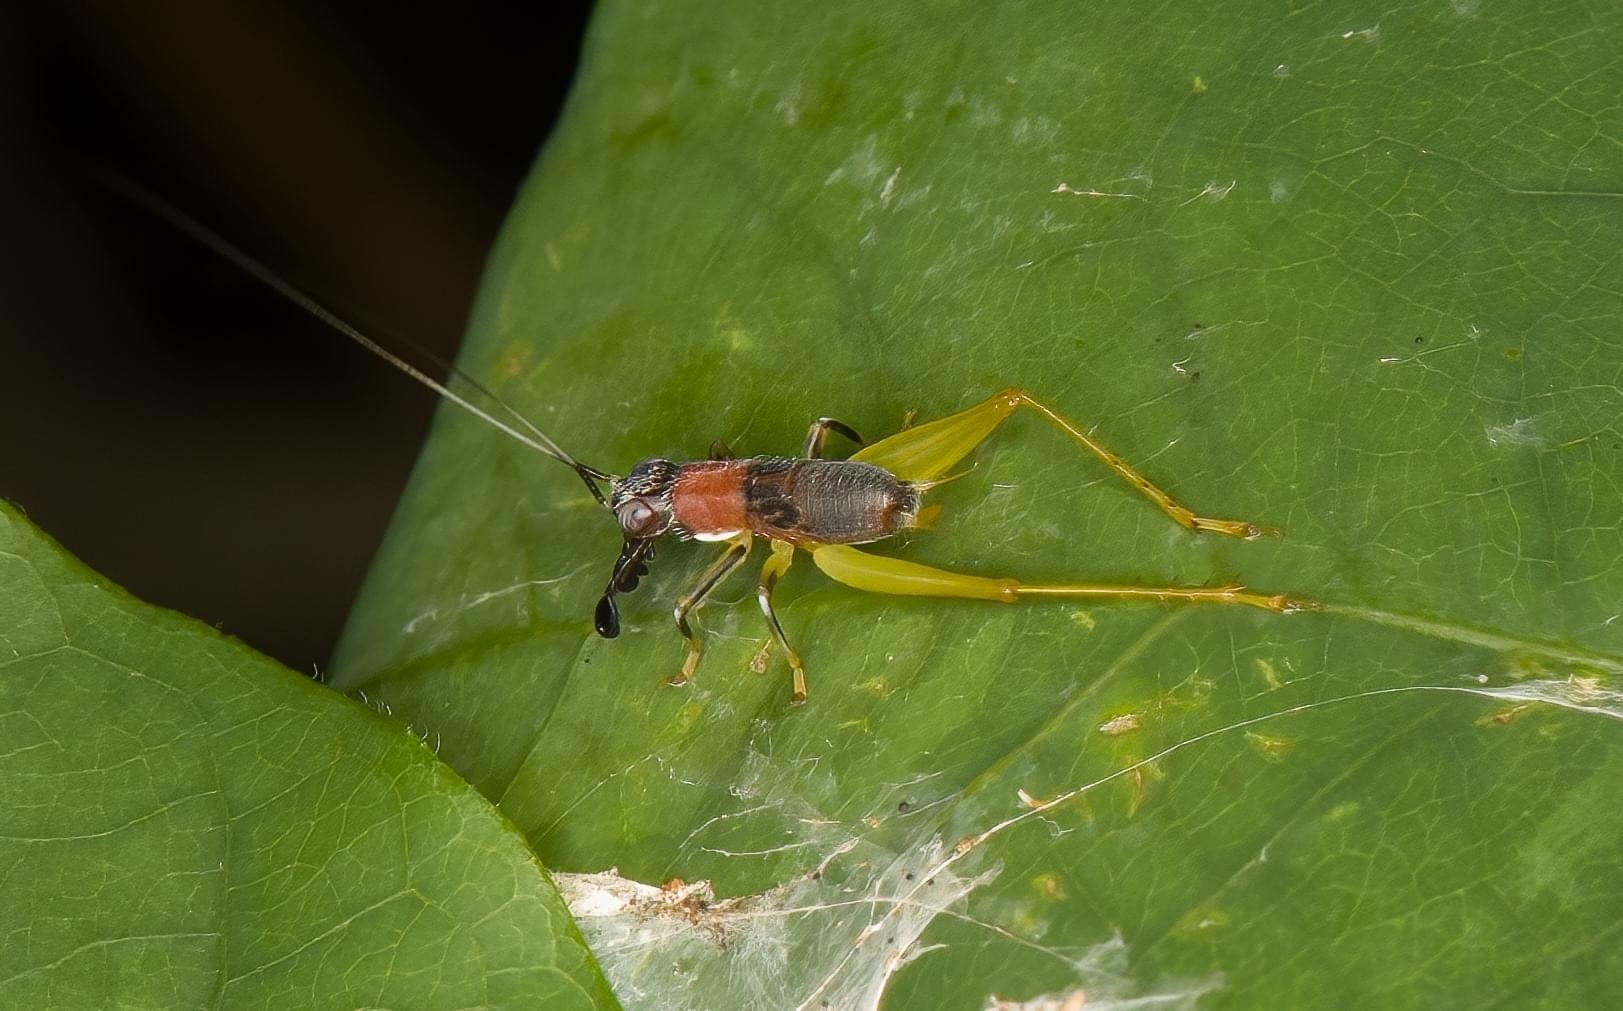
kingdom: Animalia
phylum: Arthropoda
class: Insecta
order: Orthoptera
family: Trigonidiidae
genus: Phyllopalpus
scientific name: Phyllopalpus pulchellus
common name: Handsome trig
